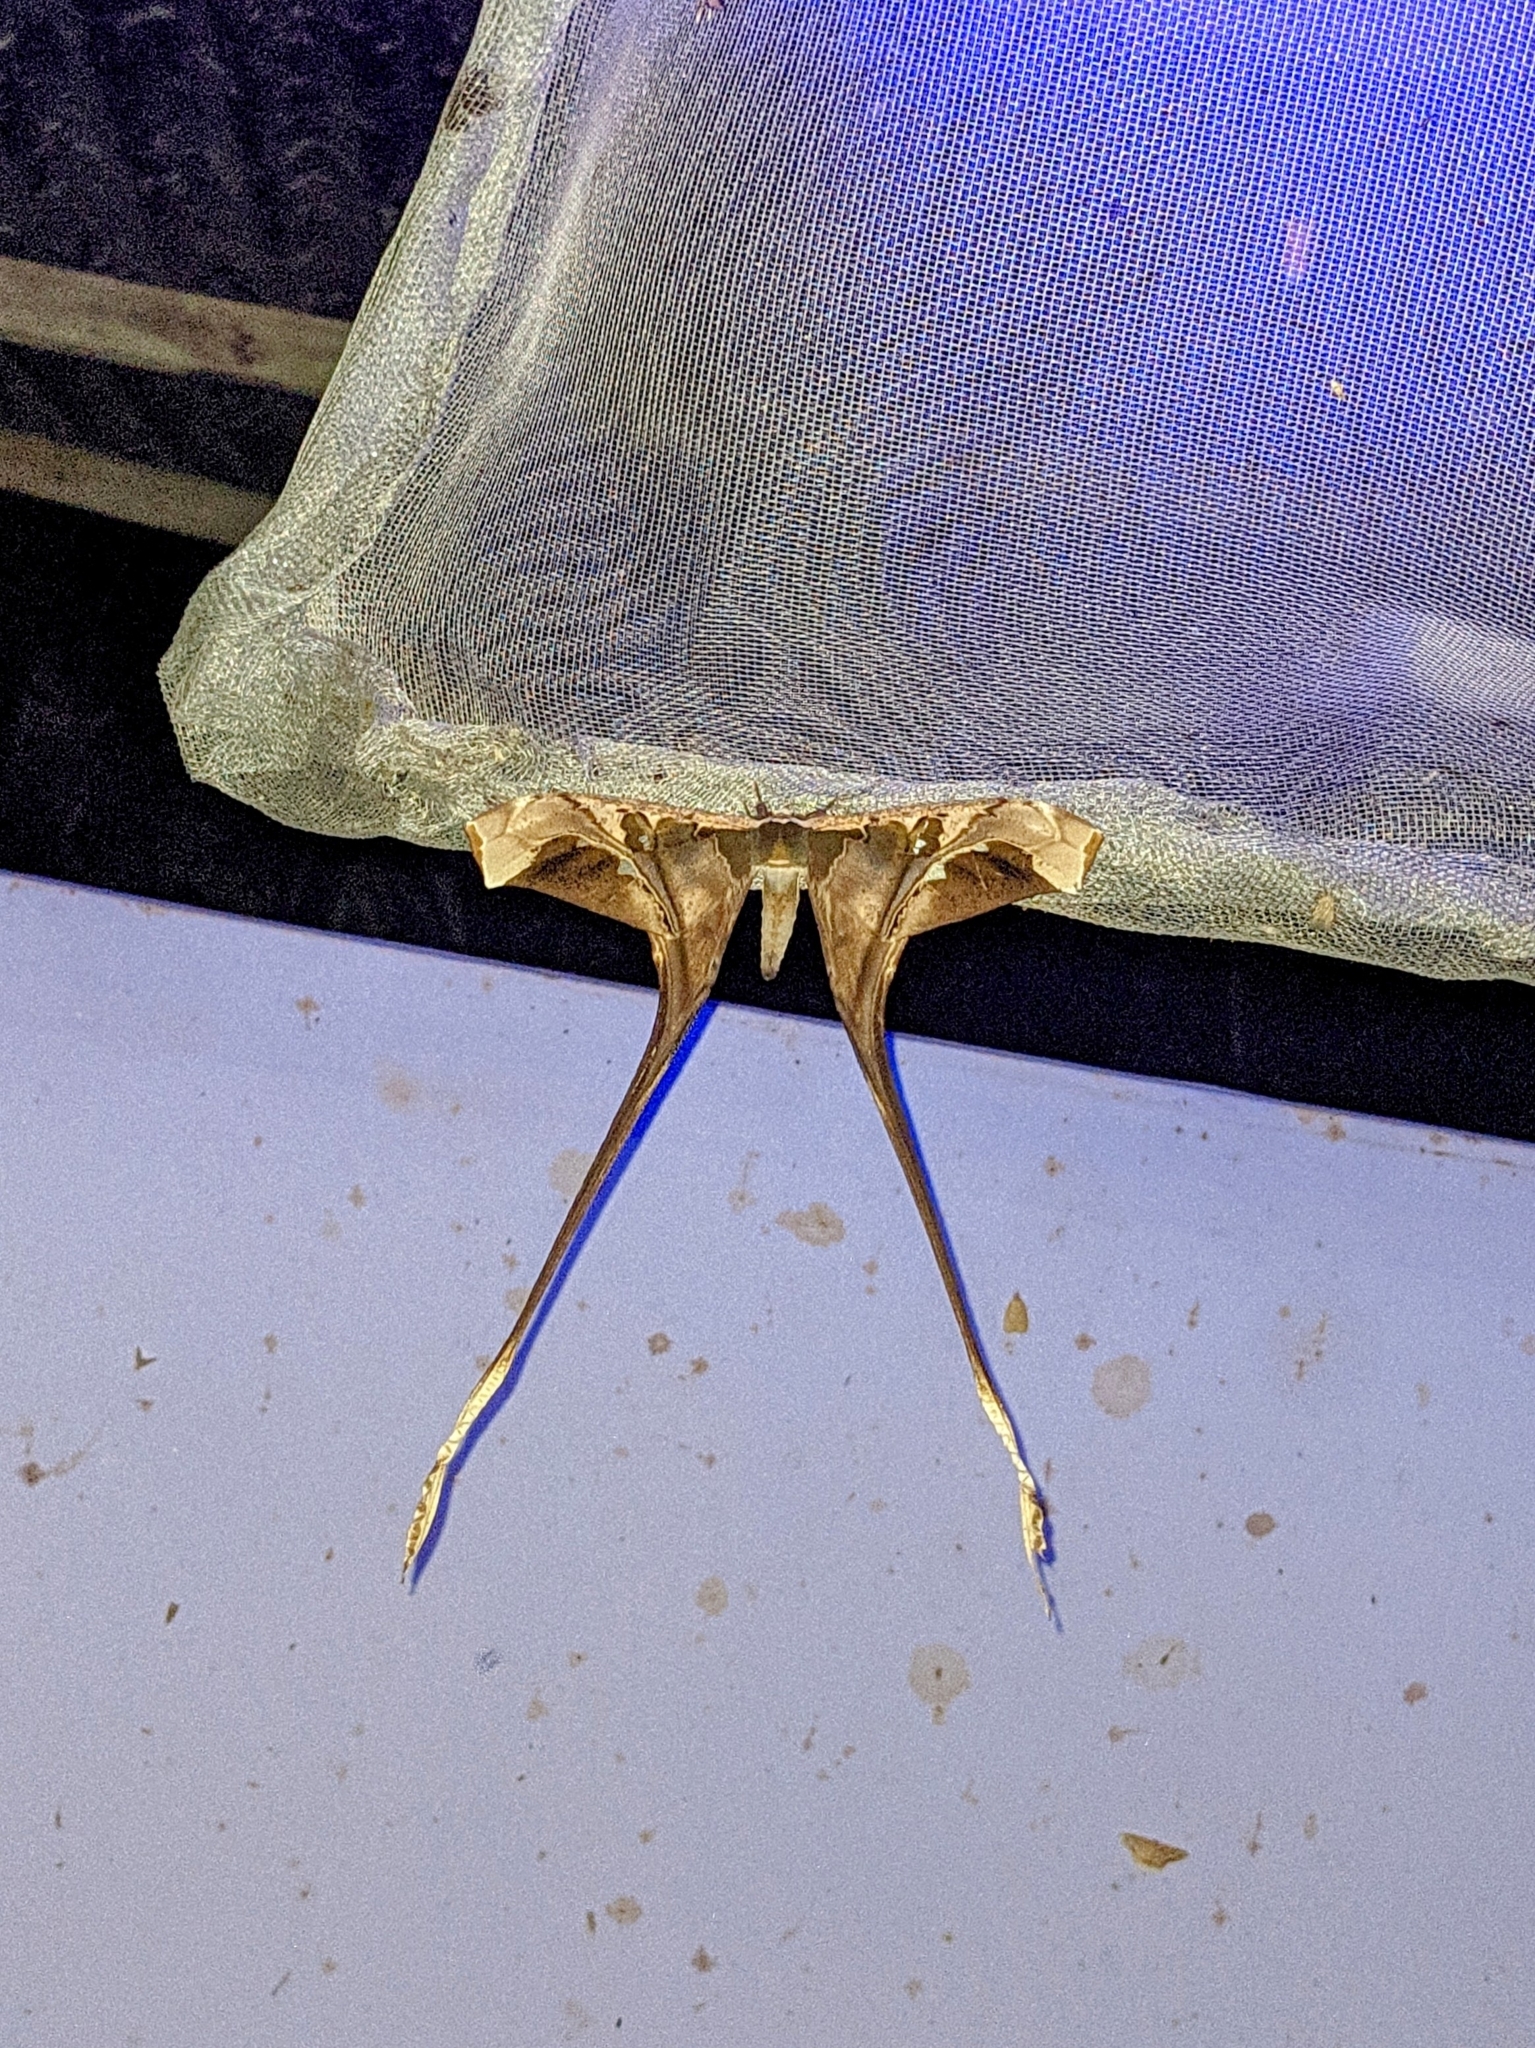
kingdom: Animalia
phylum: Arthropoda
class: Insecta
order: Lepidoptera
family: Saturniidae
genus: Copiopteryx
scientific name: Copiopteryx semiramis
